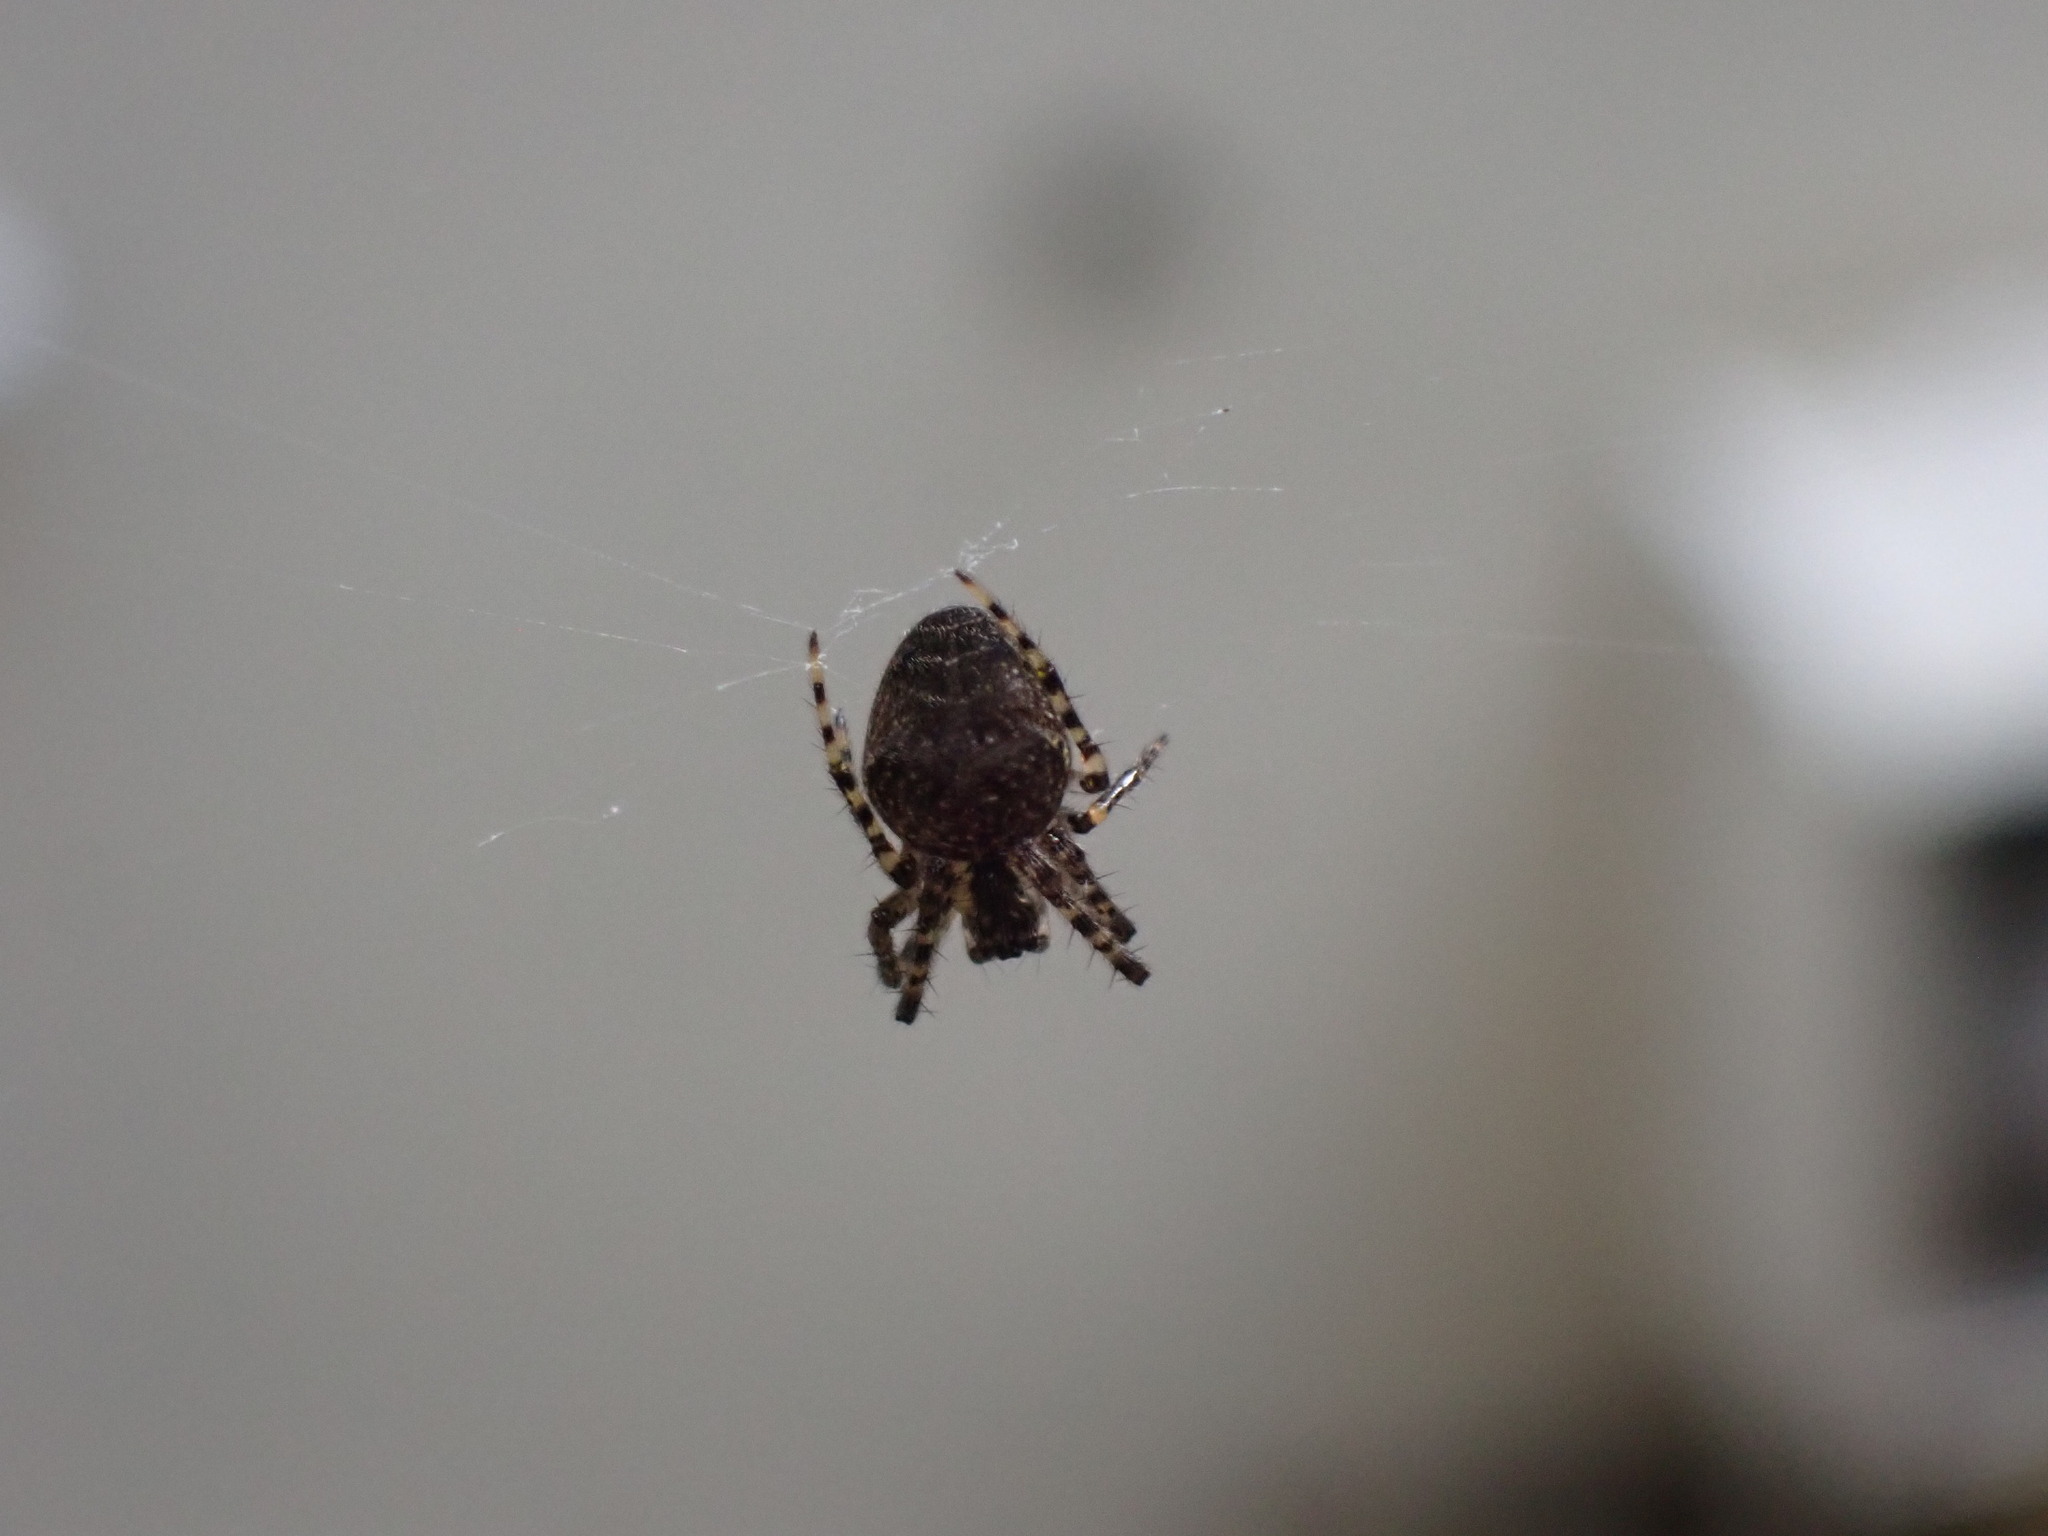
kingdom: Animalia
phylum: Arthropoda
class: Arachnida
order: Araneae
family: Tetragnathidae
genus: Metellina
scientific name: Metellina merianae
